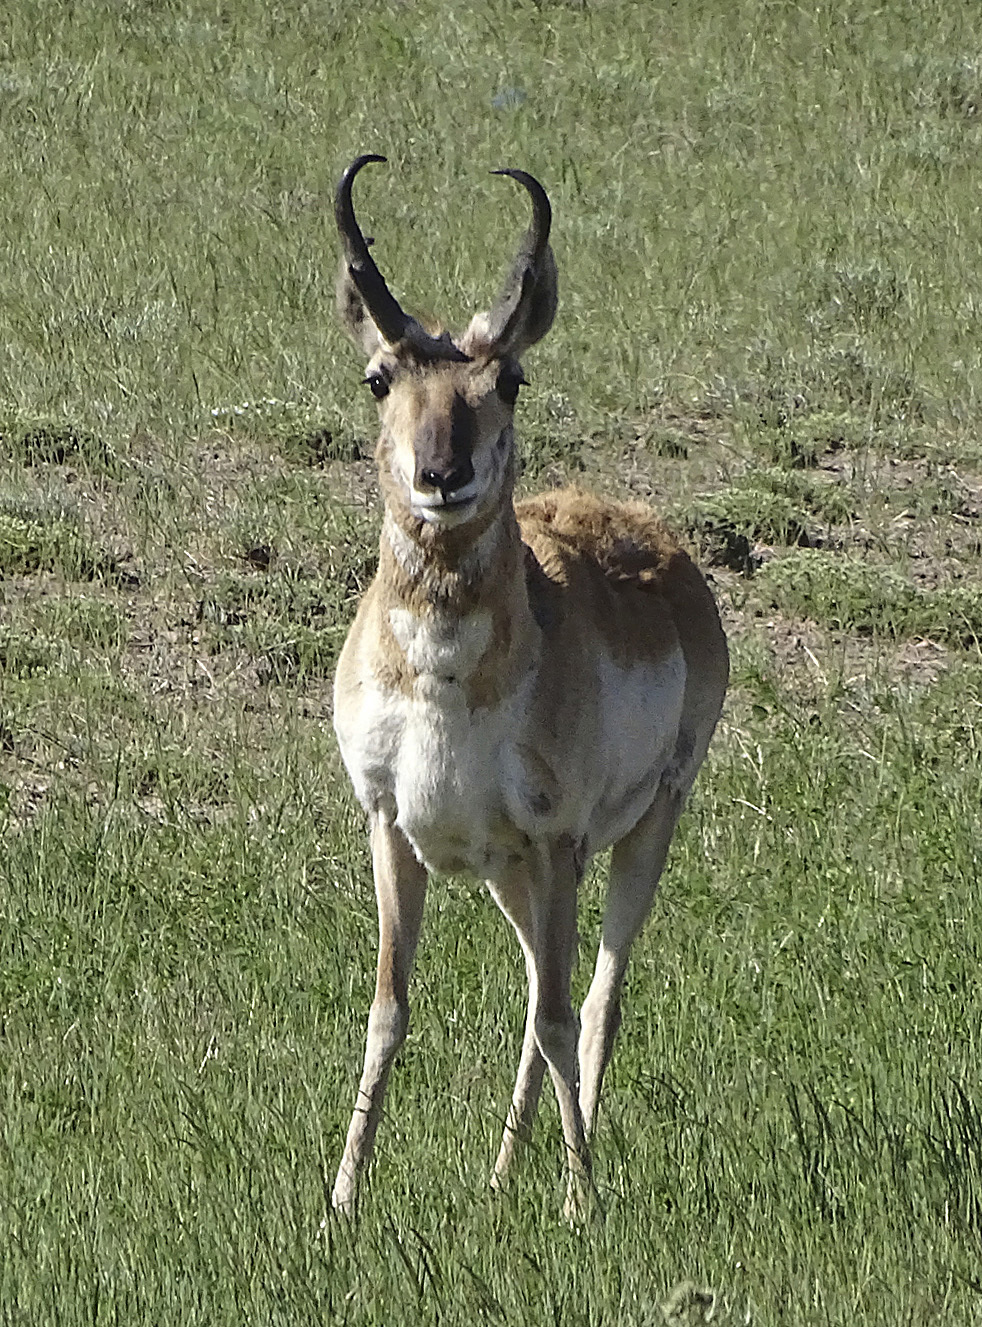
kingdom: Animalia
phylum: Chordata
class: Mammalia
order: Artiodactyla
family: Antilocapridae
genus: Antilocapra
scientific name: Antilocapra americana
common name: Pronghorn
